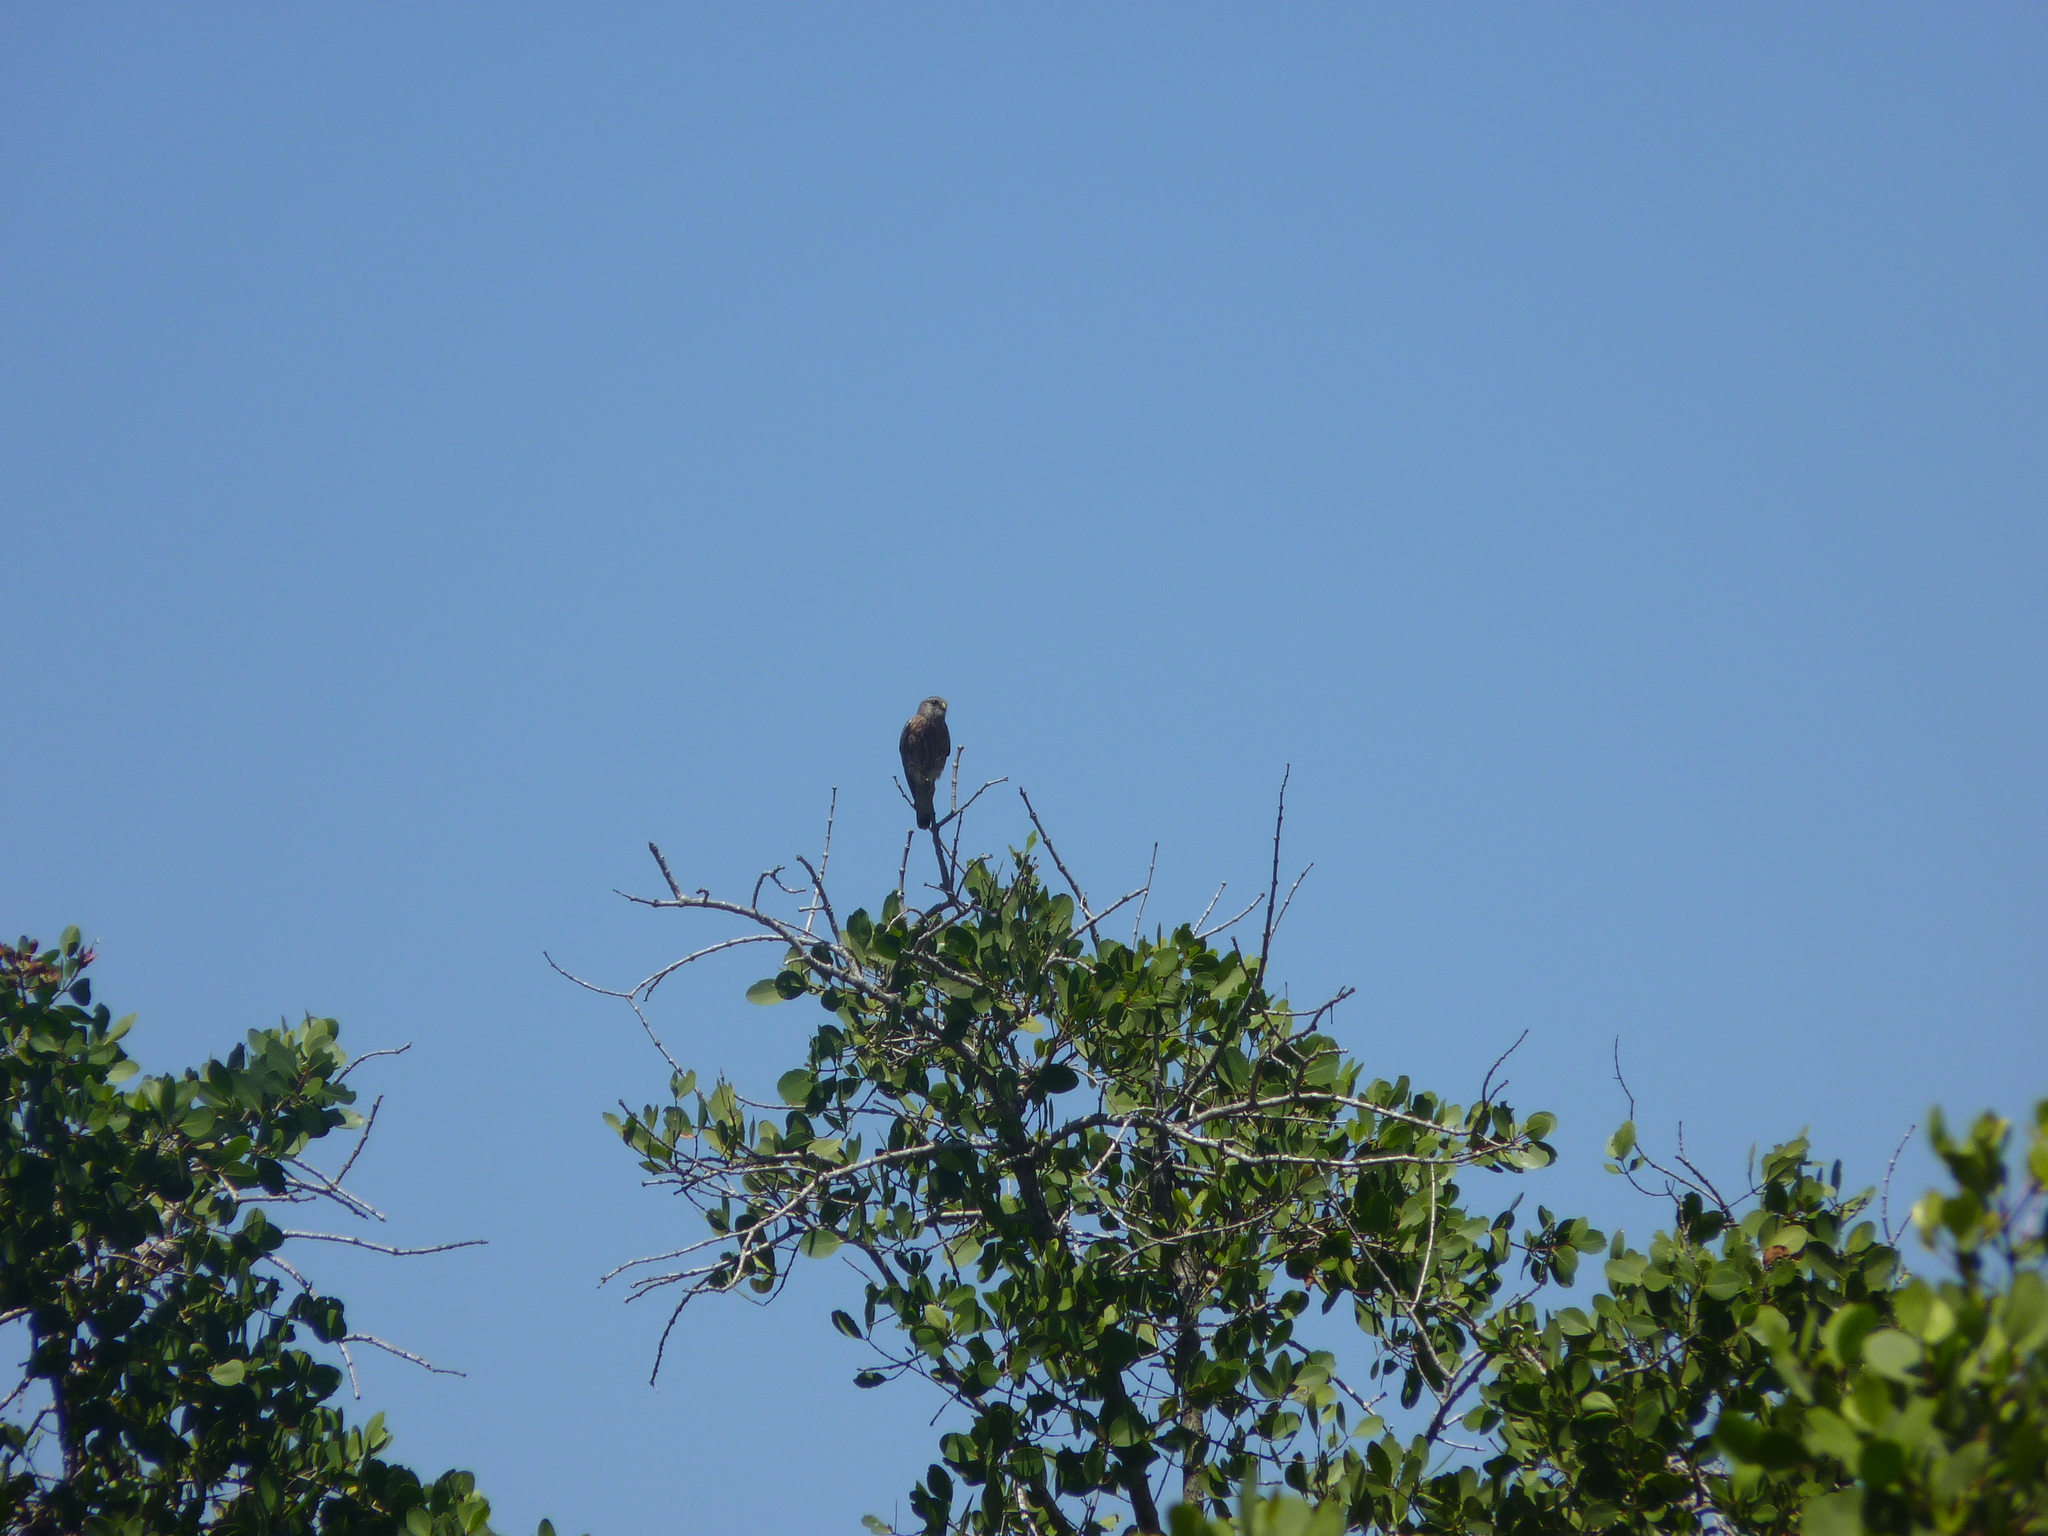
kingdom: Animalia
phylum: Chordata
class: Aves
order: Falconiformes
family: Falconidae
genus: Falco
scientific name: Falco newtoni
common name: Malagasy kestrel
